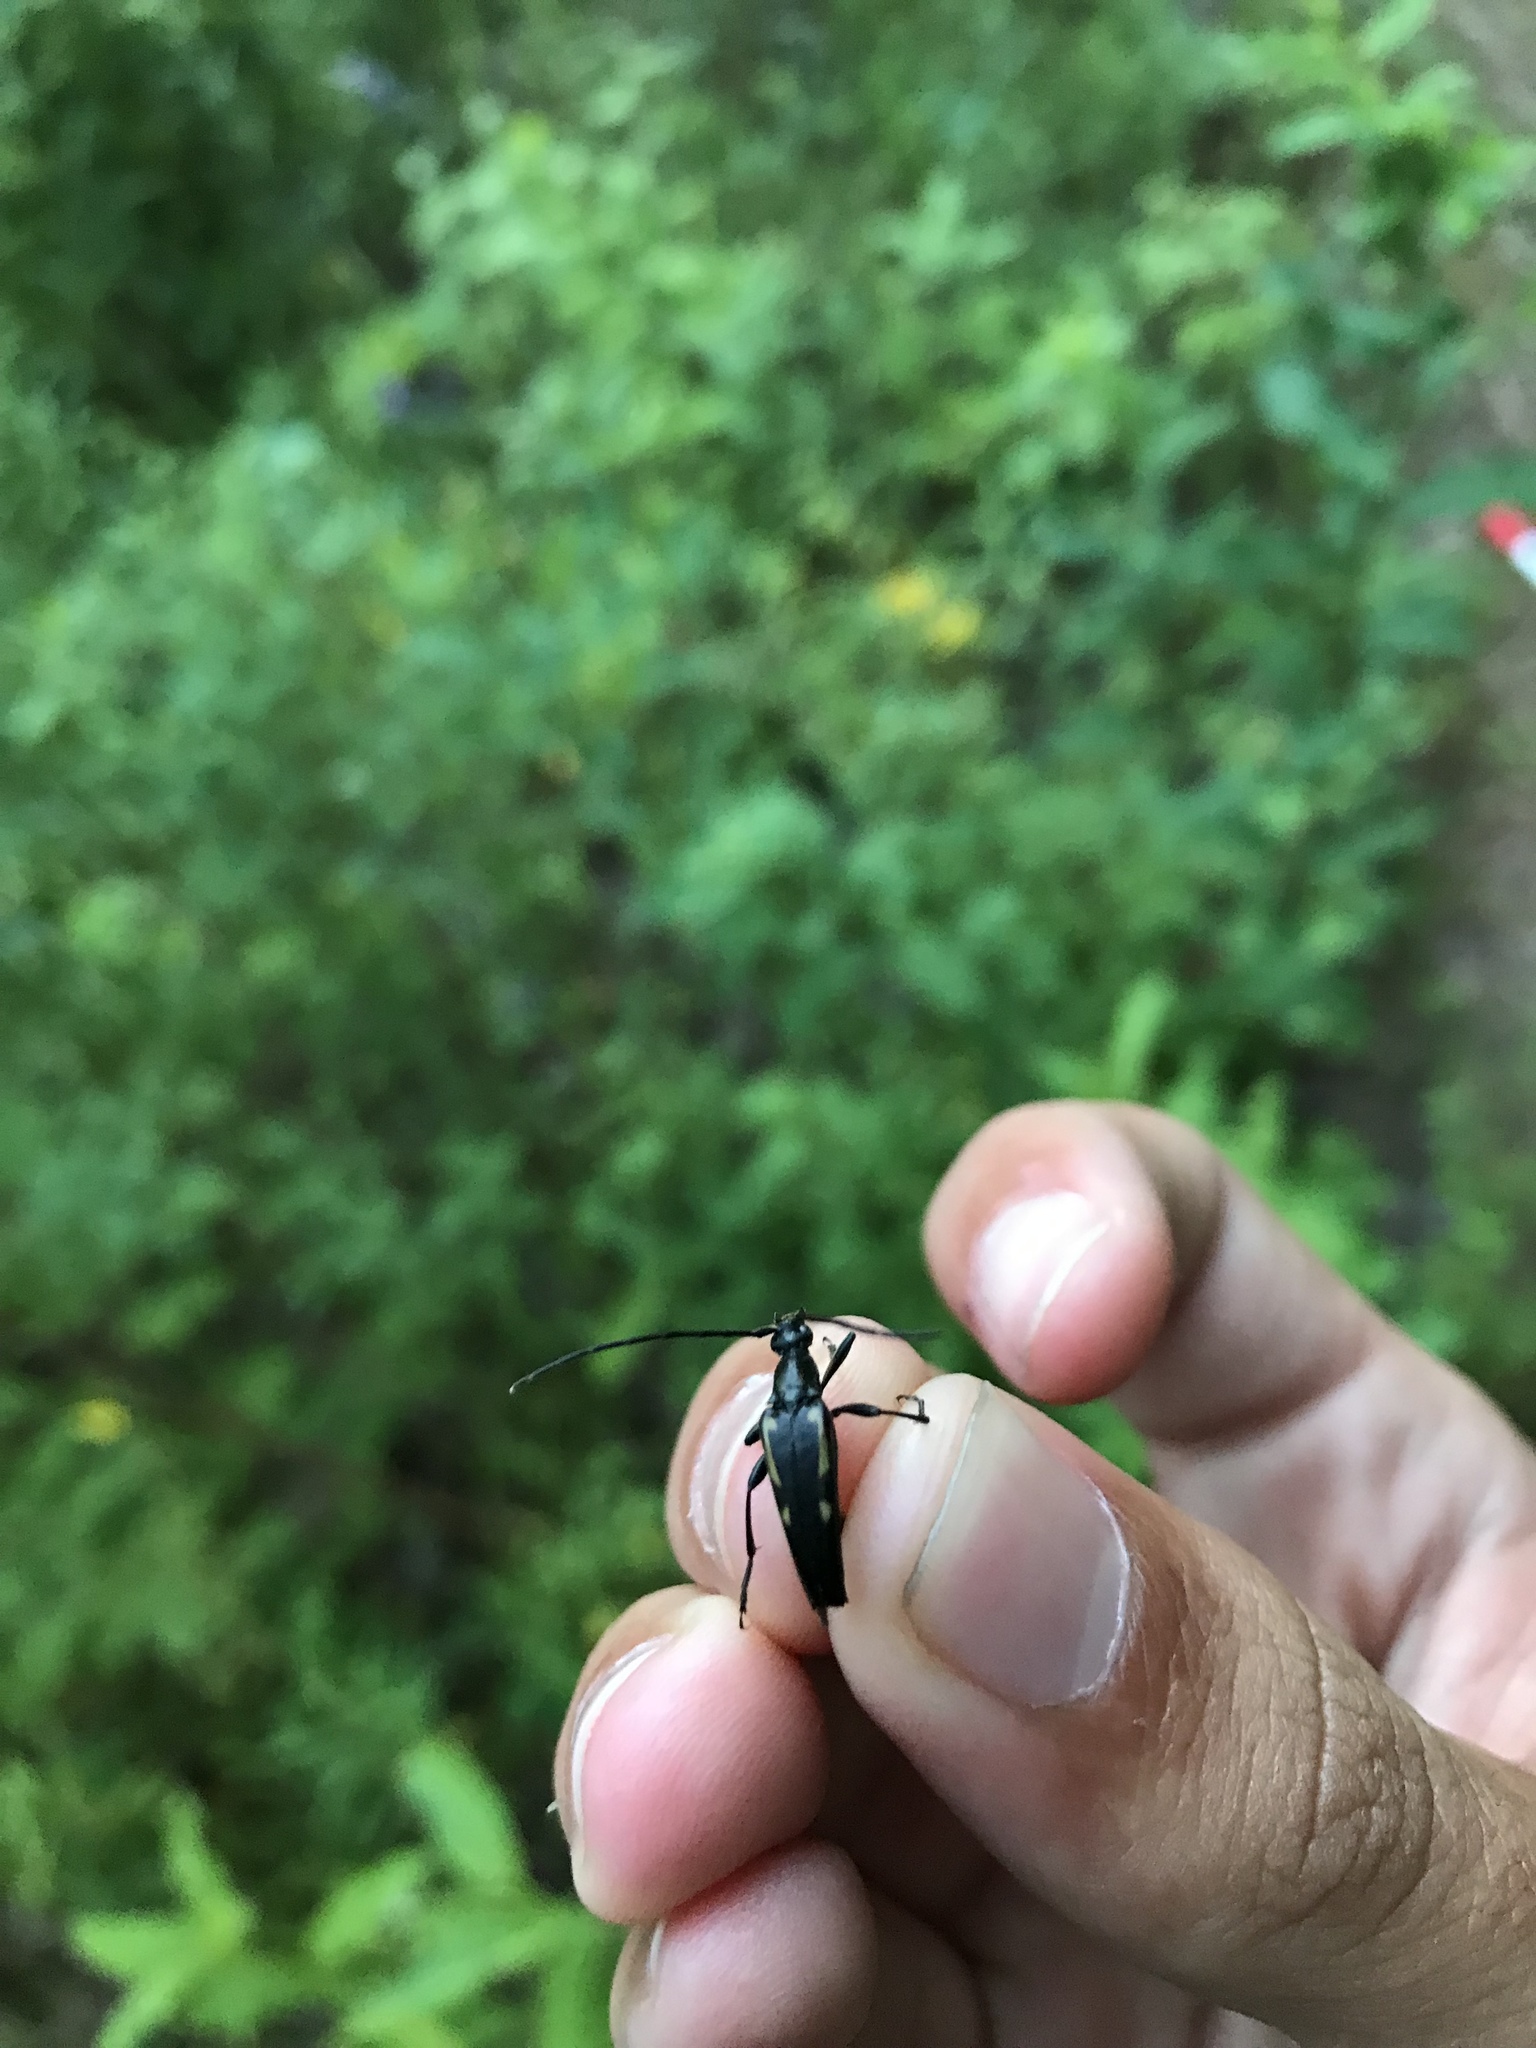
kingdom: Animalia
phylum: Arthropoda
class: Insecta
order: Coleoptera
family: Cerambycidae
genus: Etorofus
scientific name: Etorofus
